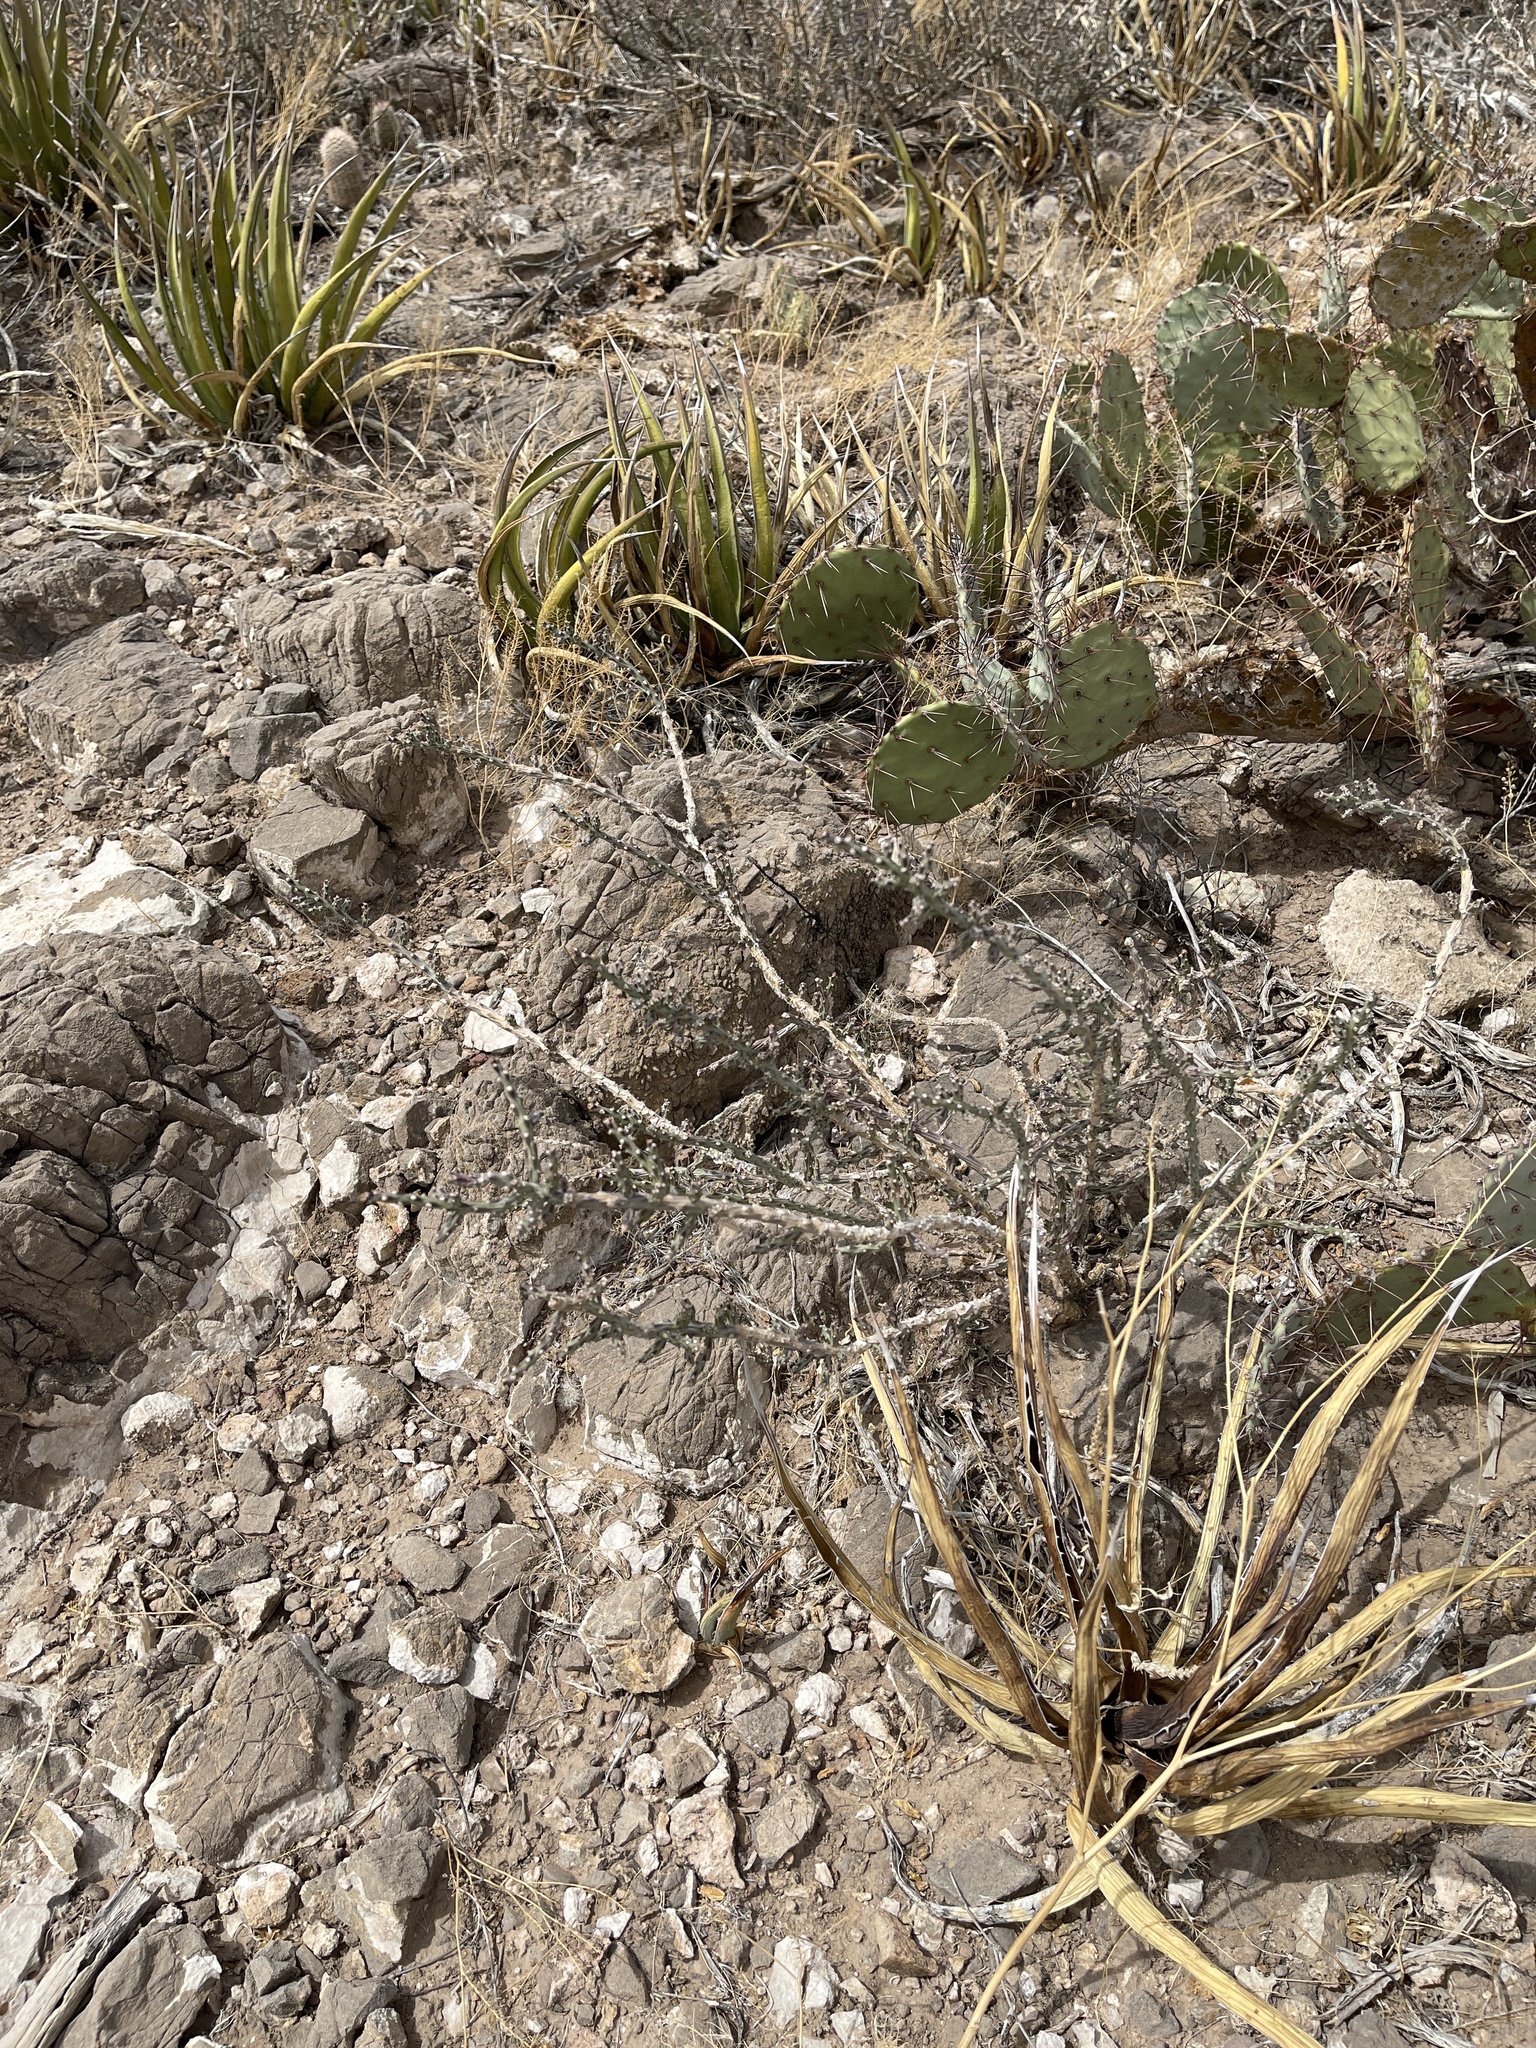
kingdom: Plantae
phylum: Tracheophyta
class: Magnoliopsida
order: Caryophyllales
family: Cactaceae
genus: Cylindropuntia
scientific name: Cylindropuntia leptocaulis
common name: Christmas cactus
